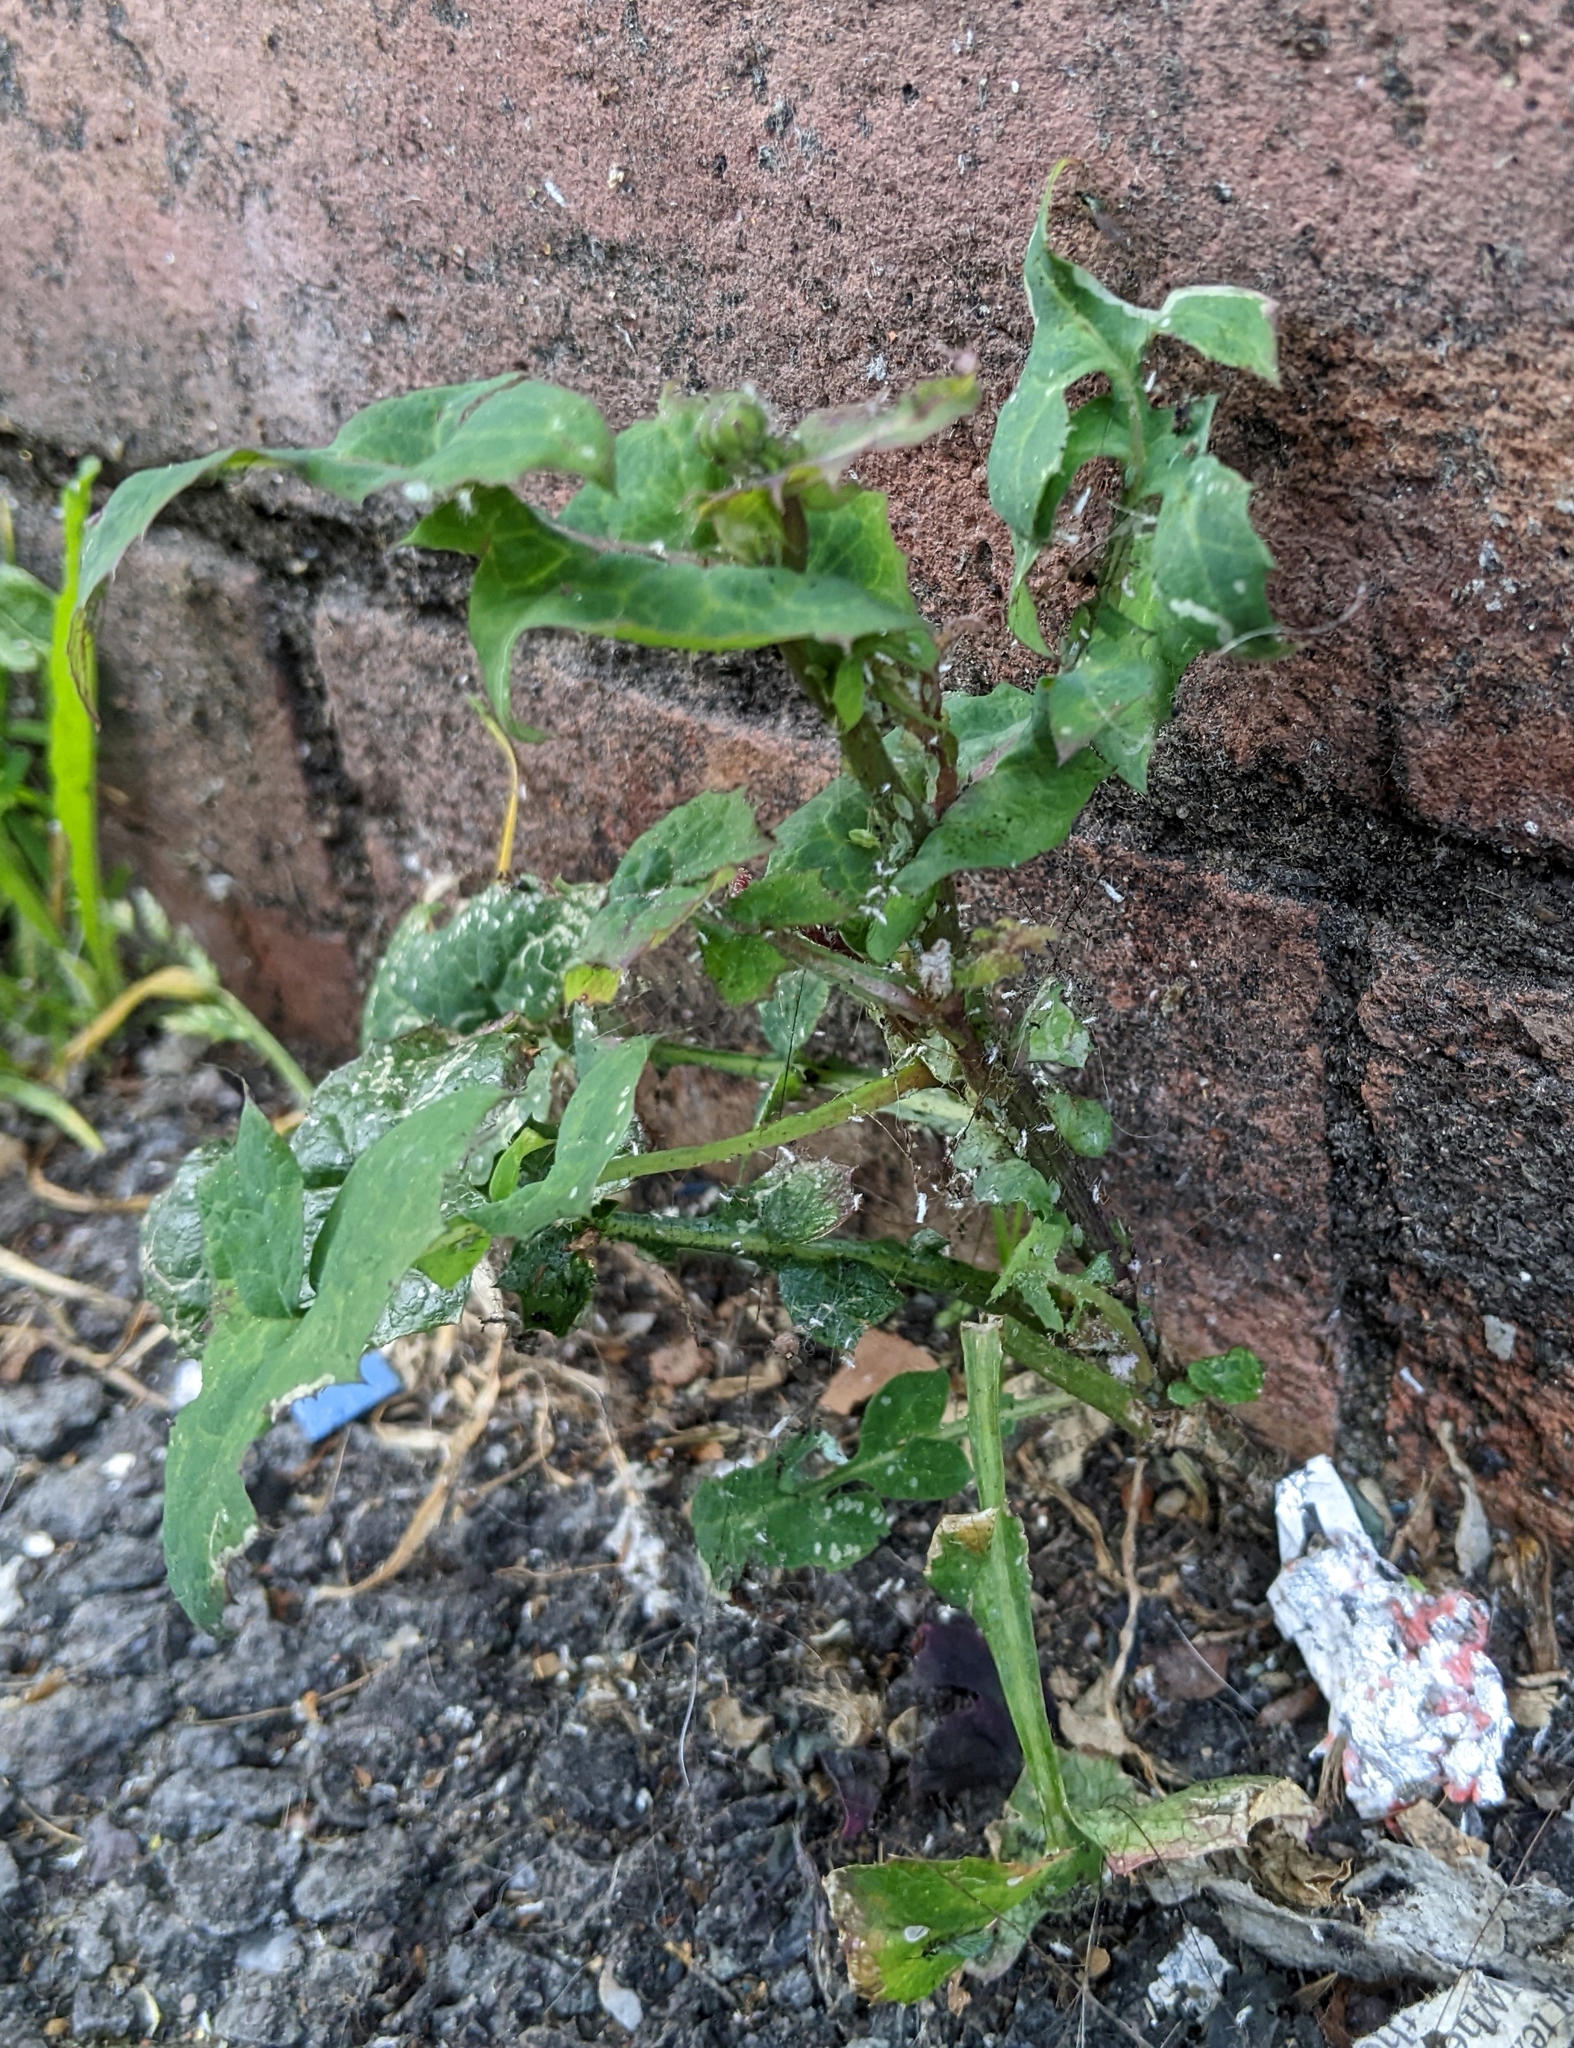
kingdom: Plantae
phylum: Tracheophyta
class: Magnoliopsida
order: Asterales
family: Asteraceae
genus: Sonchus
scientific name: Sonchus oleraceus
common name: Common sowthistle
